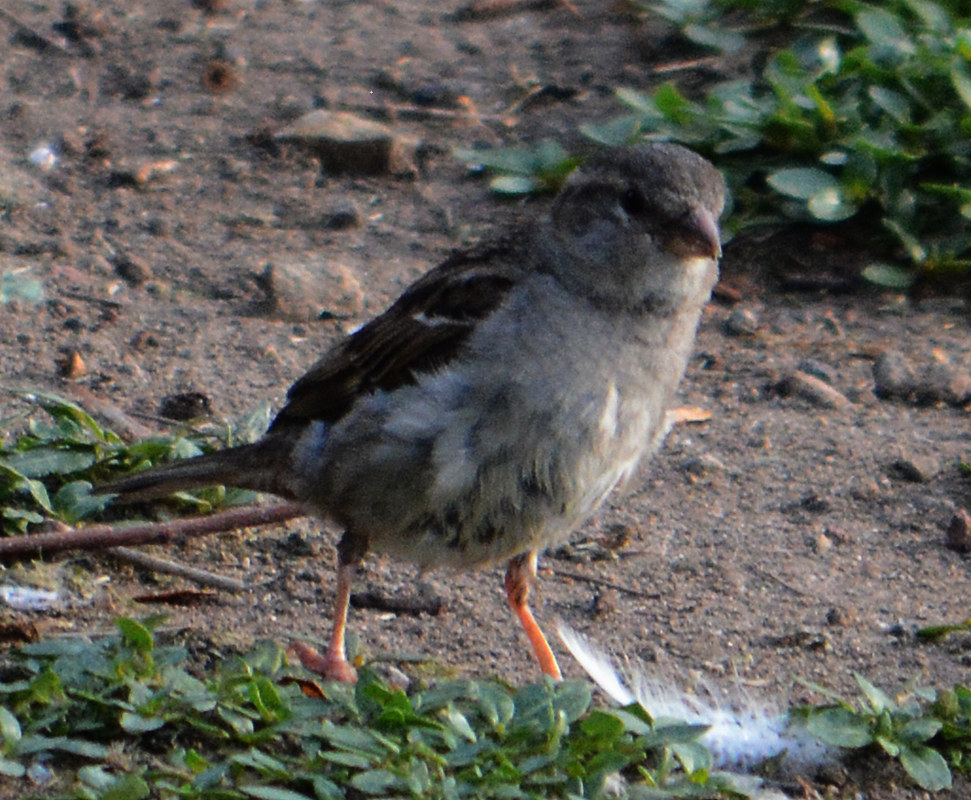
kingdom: Animalia
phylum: Chordata
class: Aves
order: Passeriformes
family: Passeridae
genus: Passer
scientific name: Passer domesticus
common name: House sparrow
